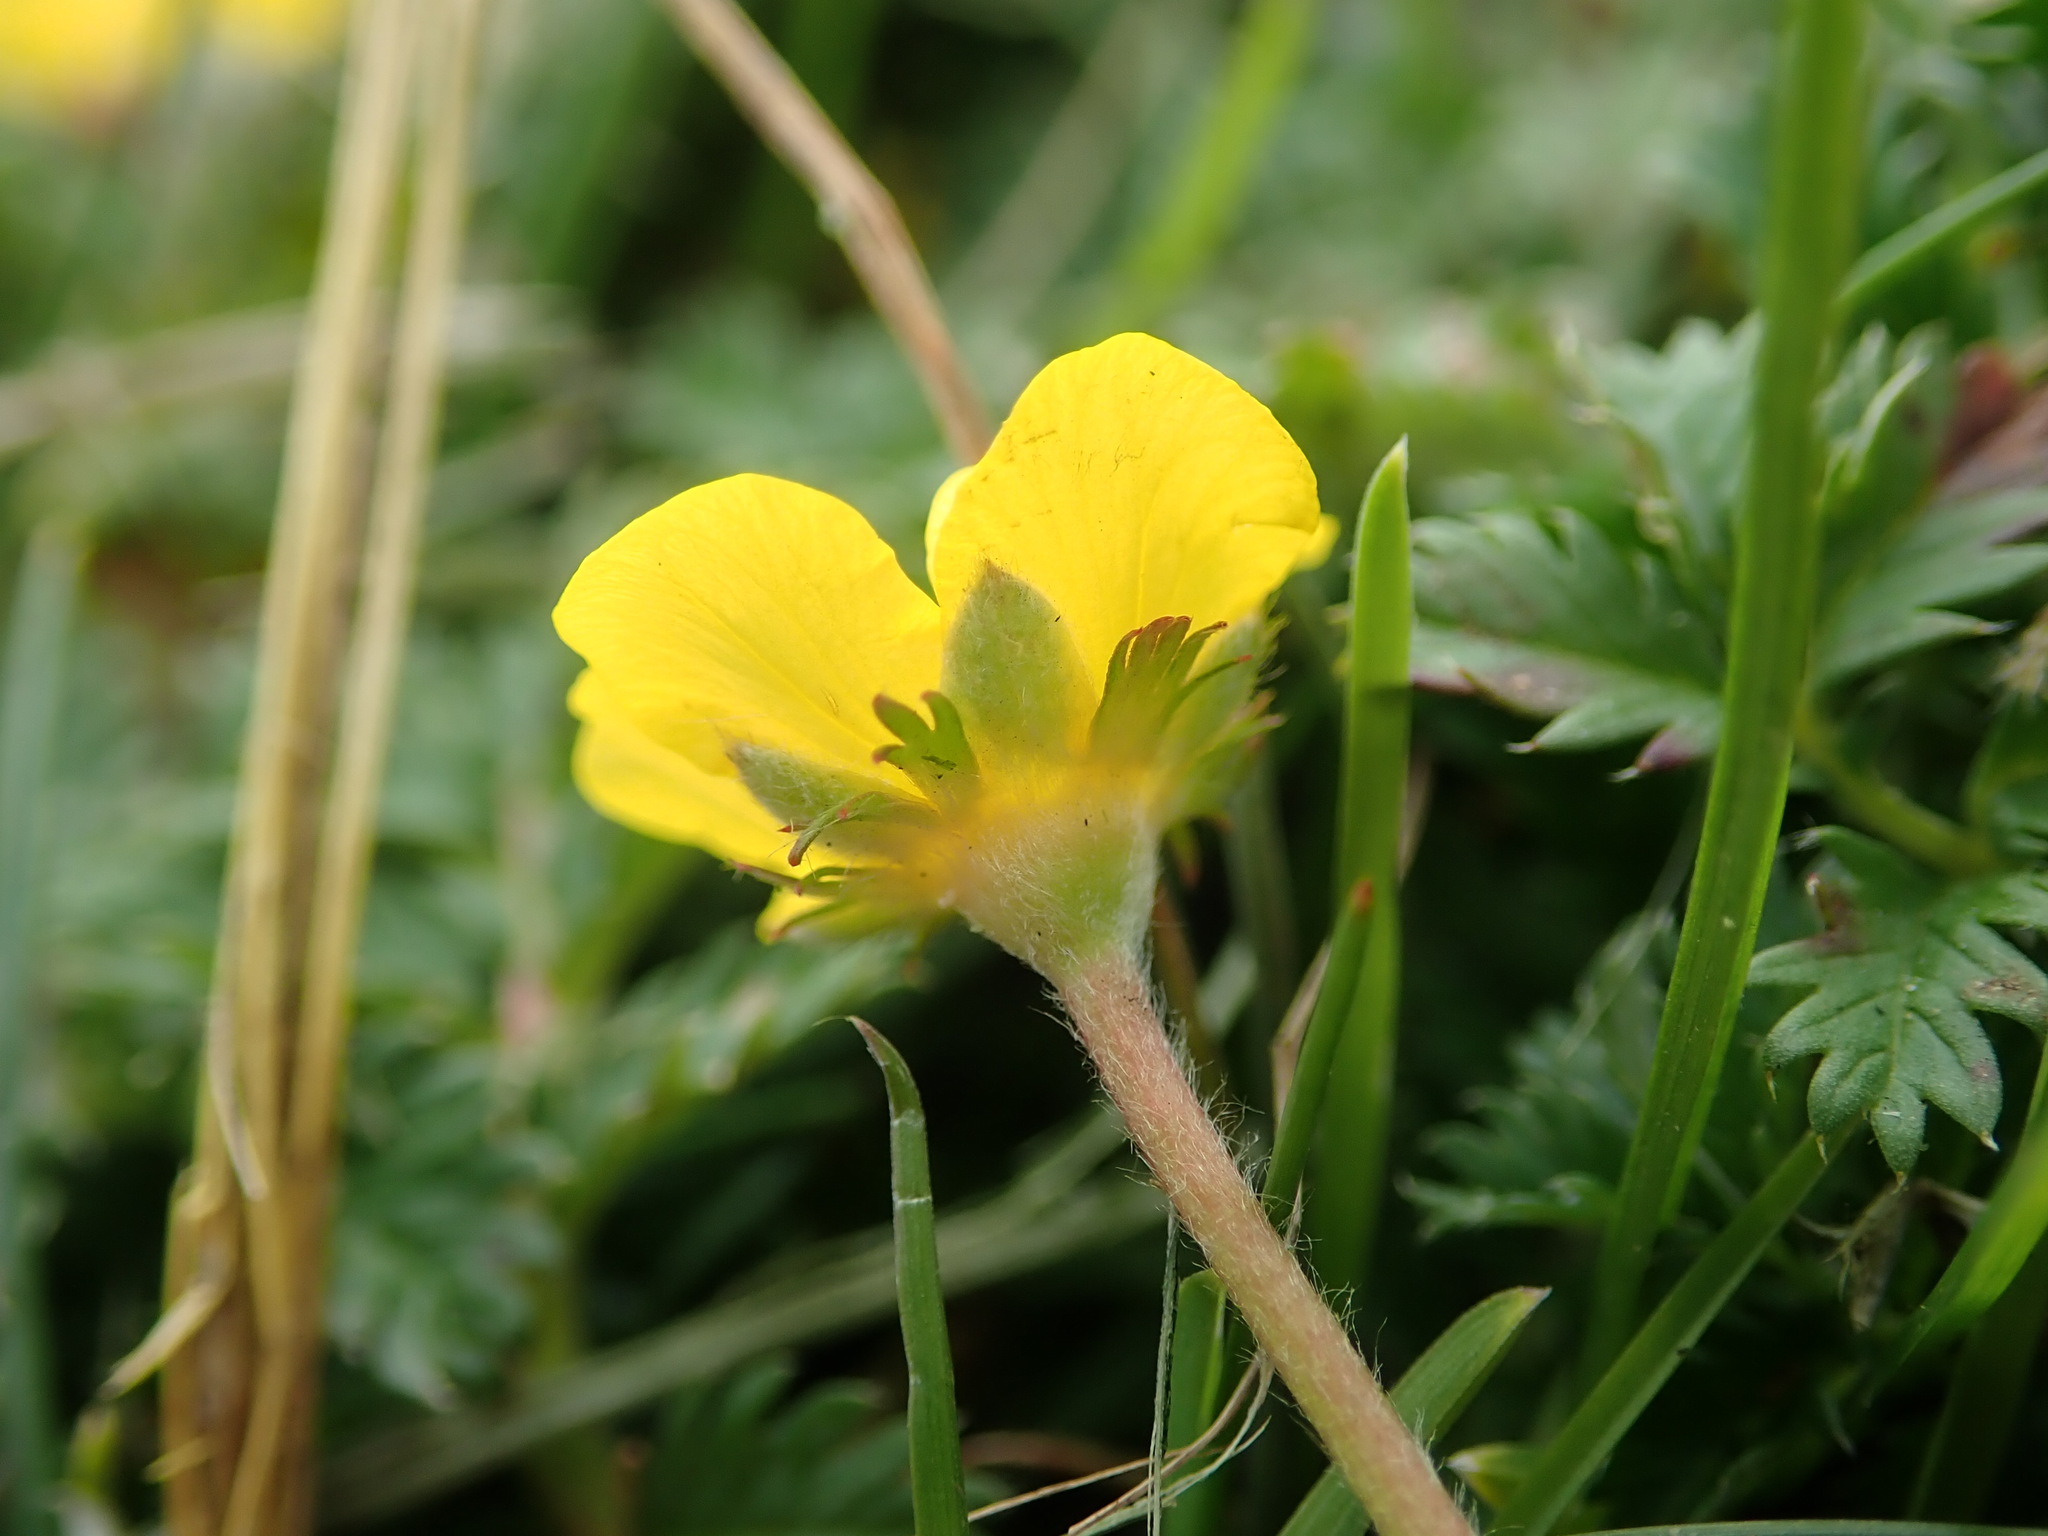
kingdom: Plantae
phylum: Tracheophyta
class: Magnoliopsida
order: Rosales
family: Rosaceae
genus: Argentina
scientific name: Argentina anserina
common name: Common silverweed
